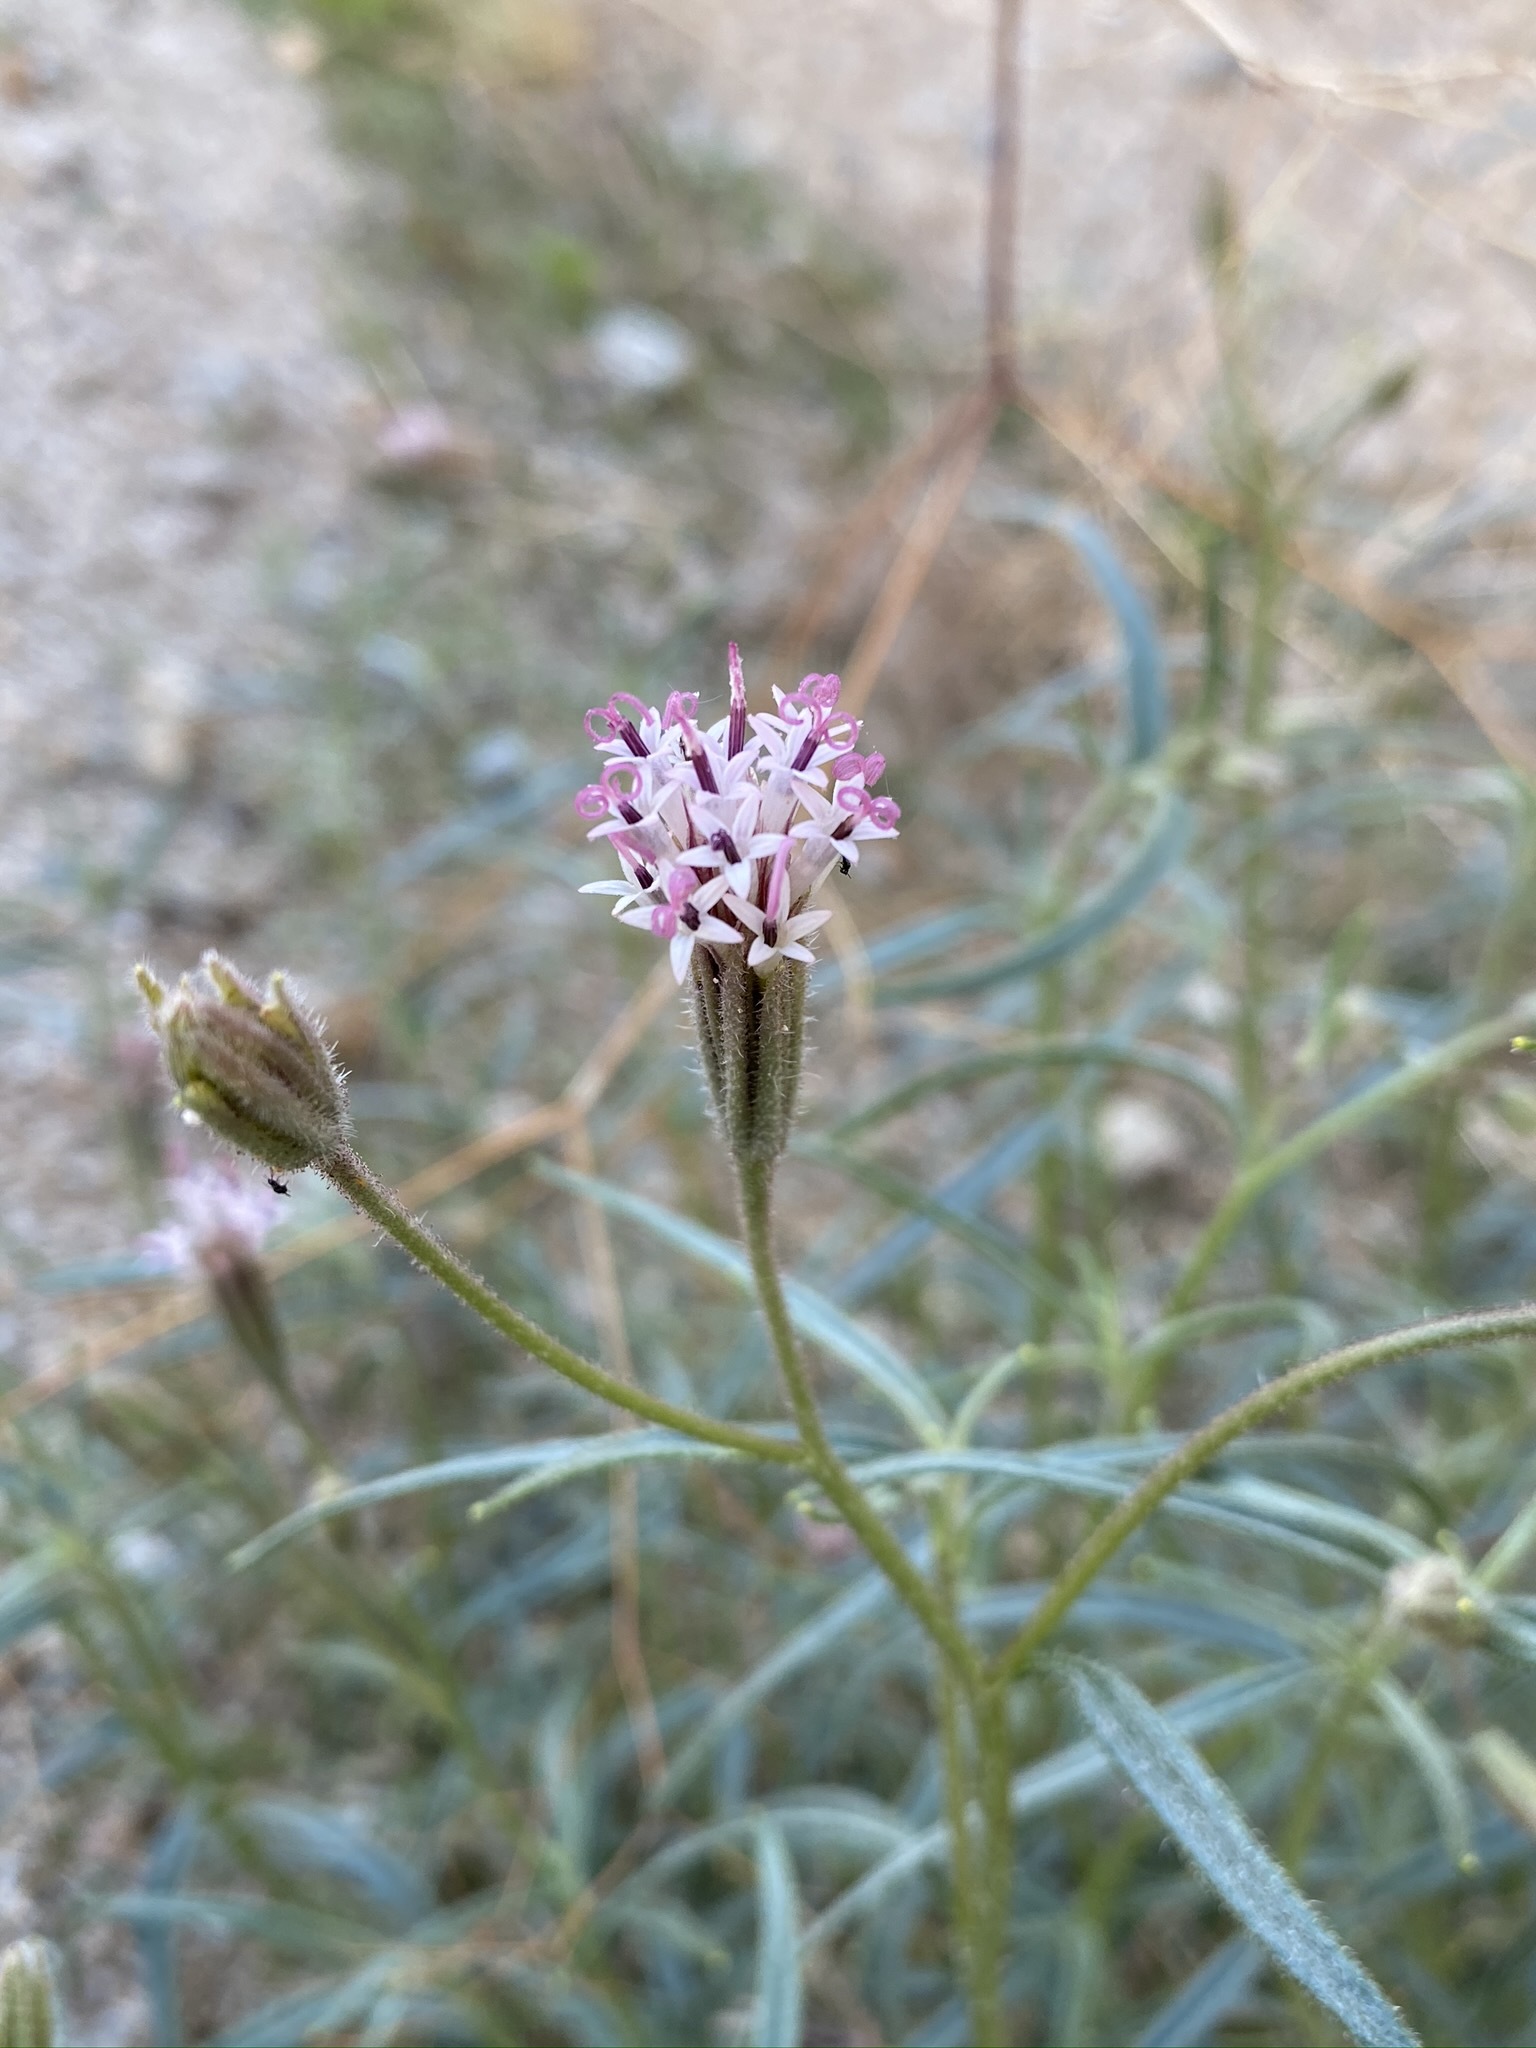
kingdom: Plantae
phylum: Tracheophyta
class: Magnoliopsida
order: Asterales
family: Asteraceae
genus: Palafoxia
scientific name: Palafoxia arida
